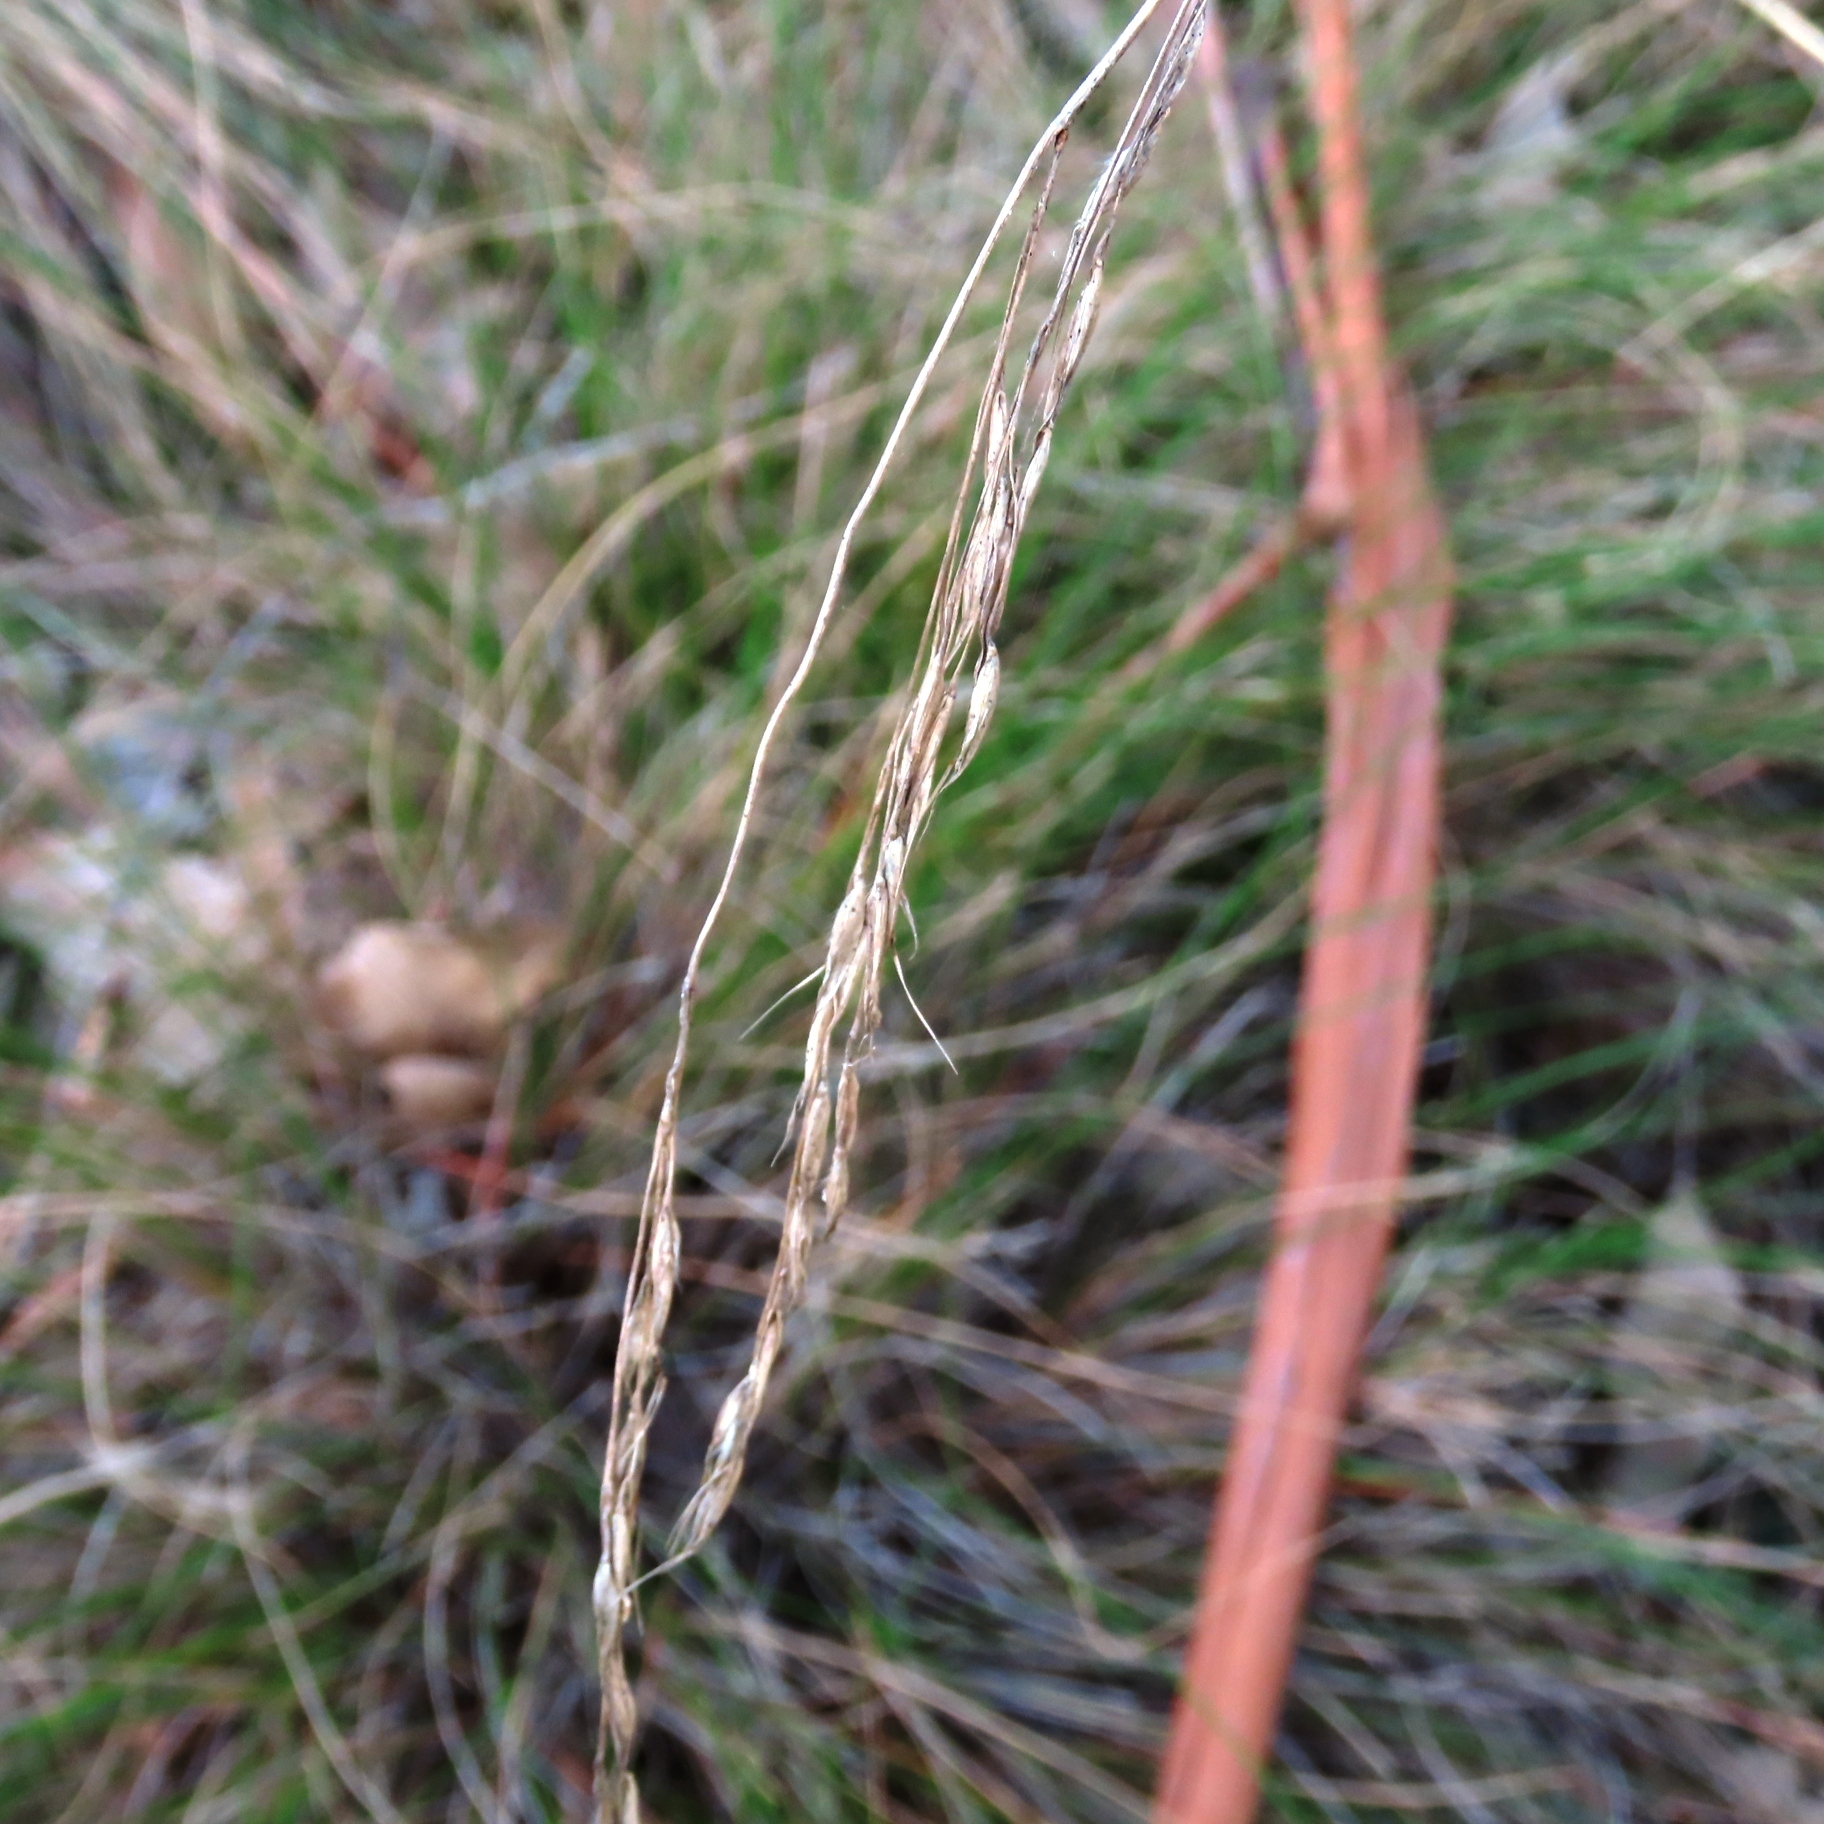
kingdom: Plantae
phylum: Tracheophyta
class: Liliopsida
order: Poales
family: Poaceae
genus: Rytidosperma
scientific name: Rytidosperma pallidum
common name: Red-anther wallaby grass
